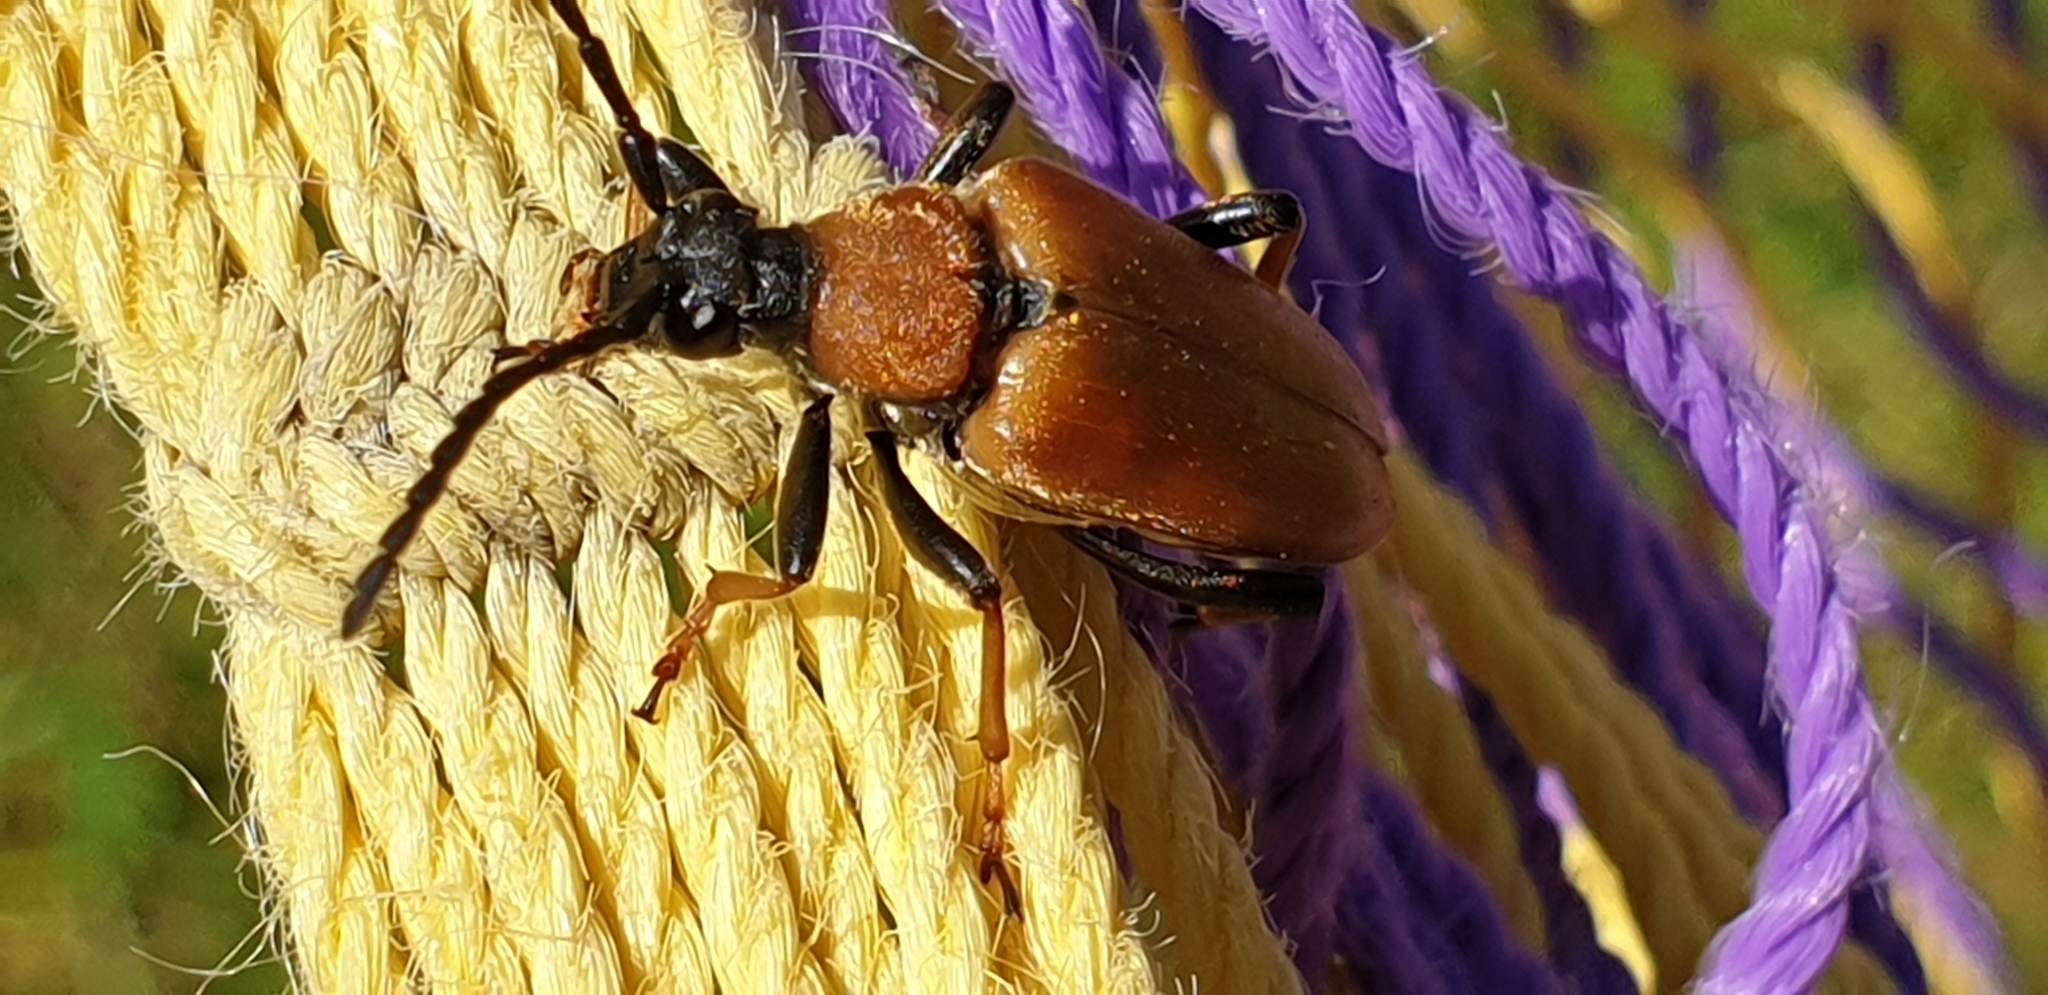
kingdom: Animalia
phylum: Arthropoda
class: Insecta
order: Coleoptera
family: Cerambycidae
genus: Stictoleptura
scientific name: Stictoleptura rubra
